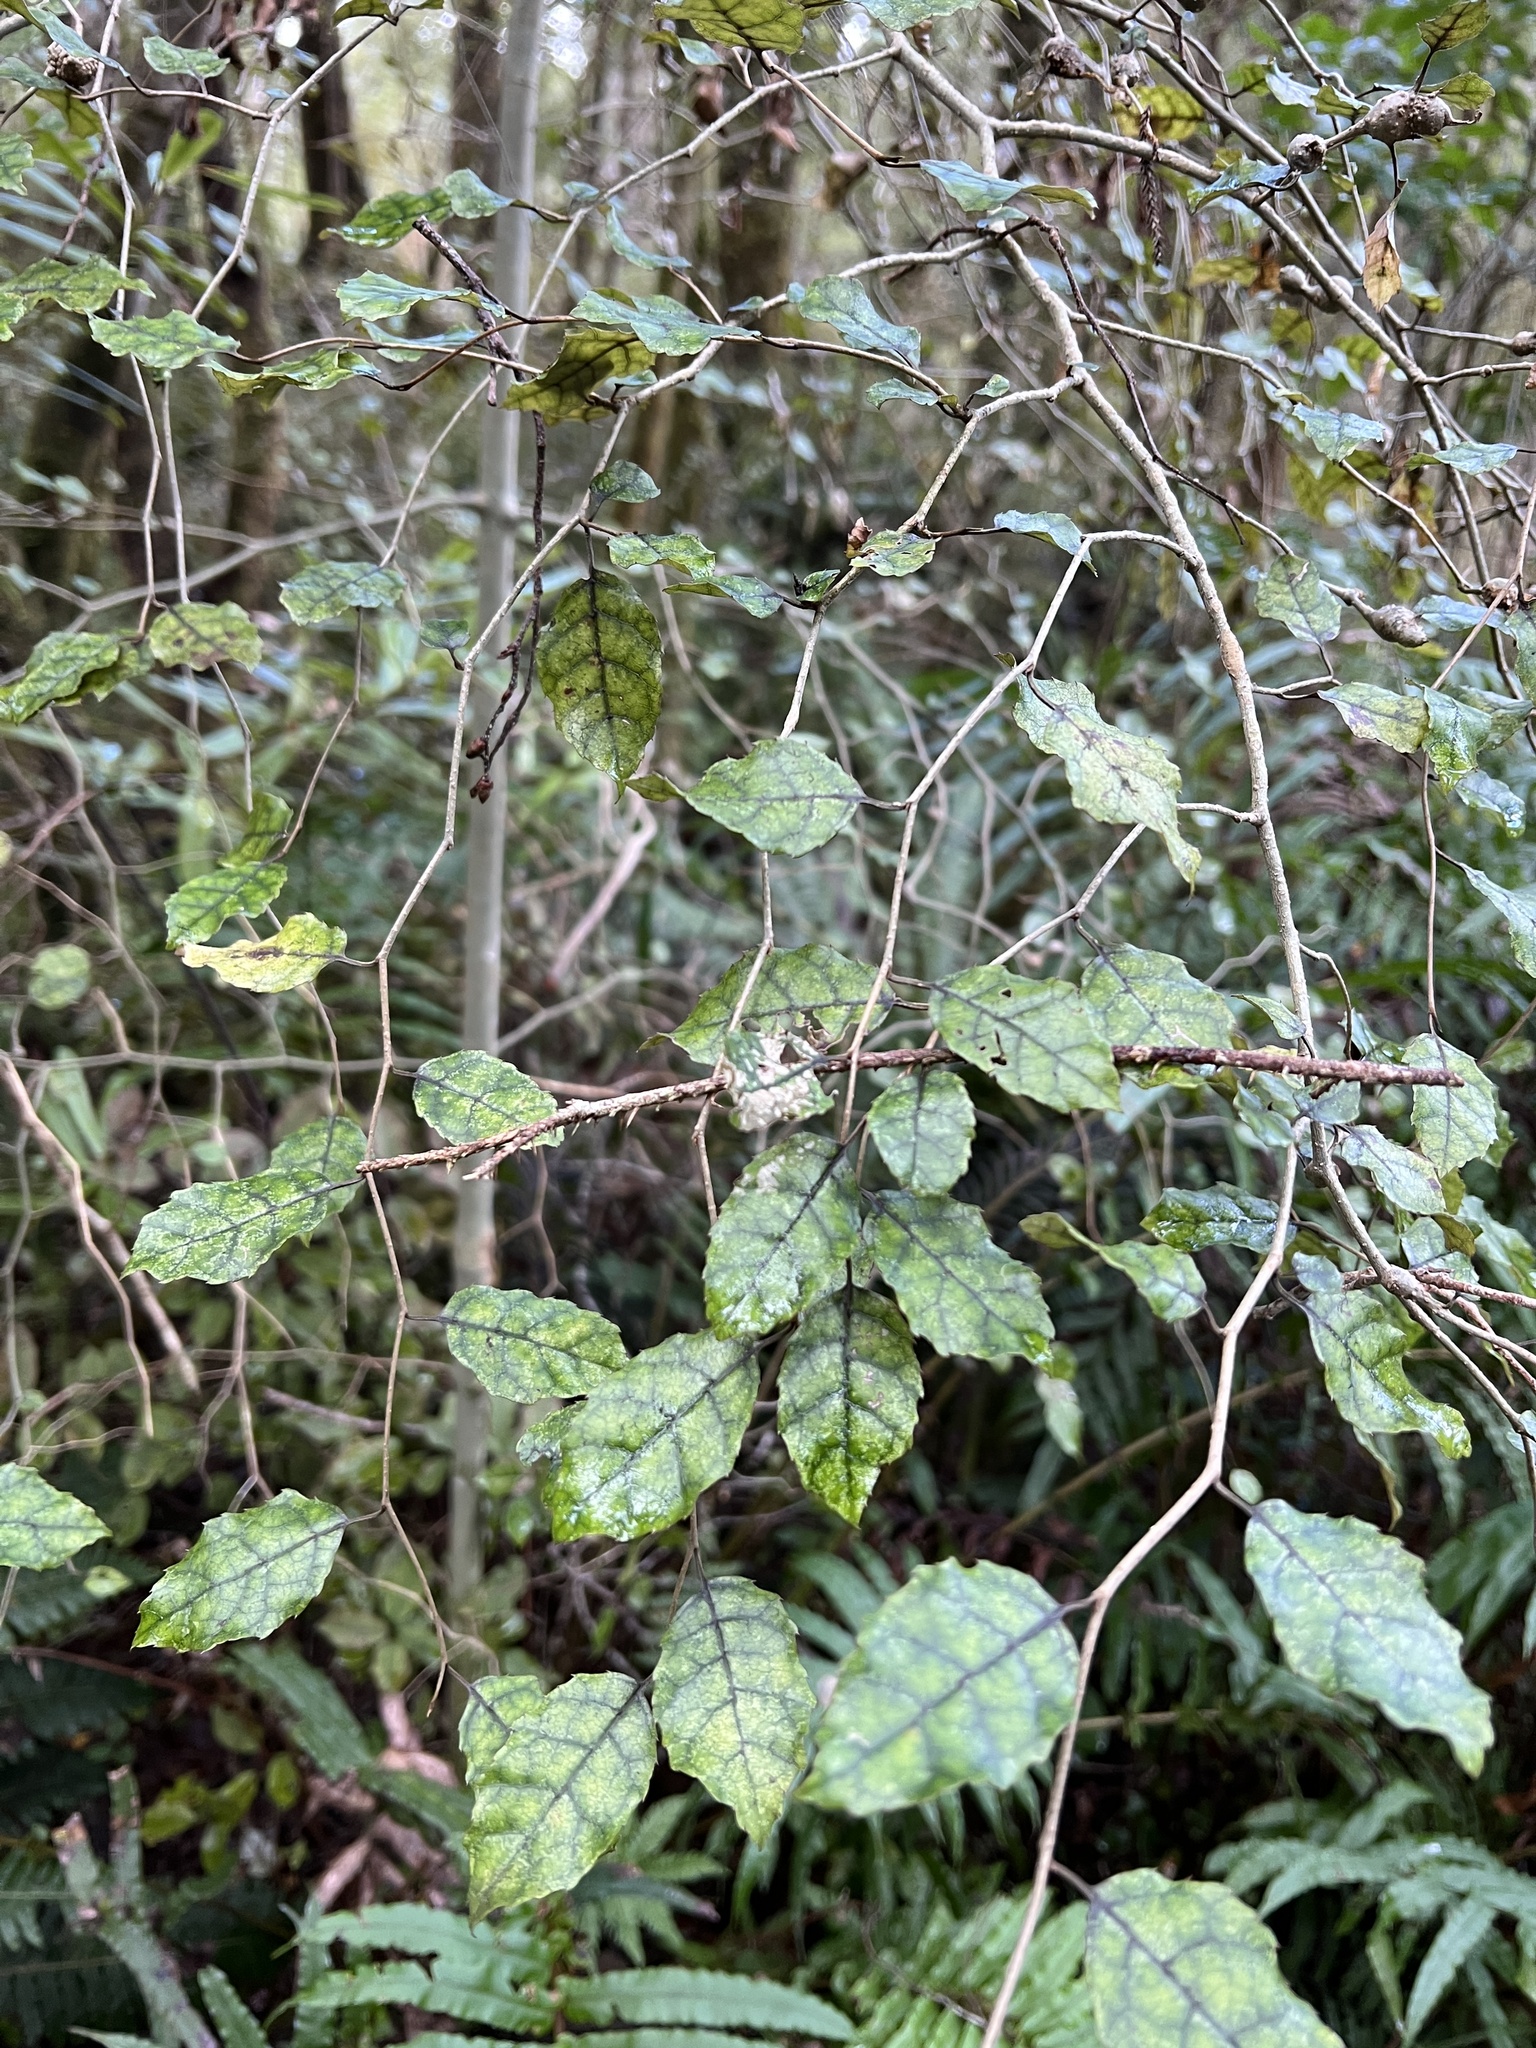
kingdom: Plantae
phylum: Tracheophyta
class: Magnoliopsida
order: Asterales
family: Rousseaceae
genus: Carpodetus
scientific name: Carpodetus serratus
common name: White mapau
